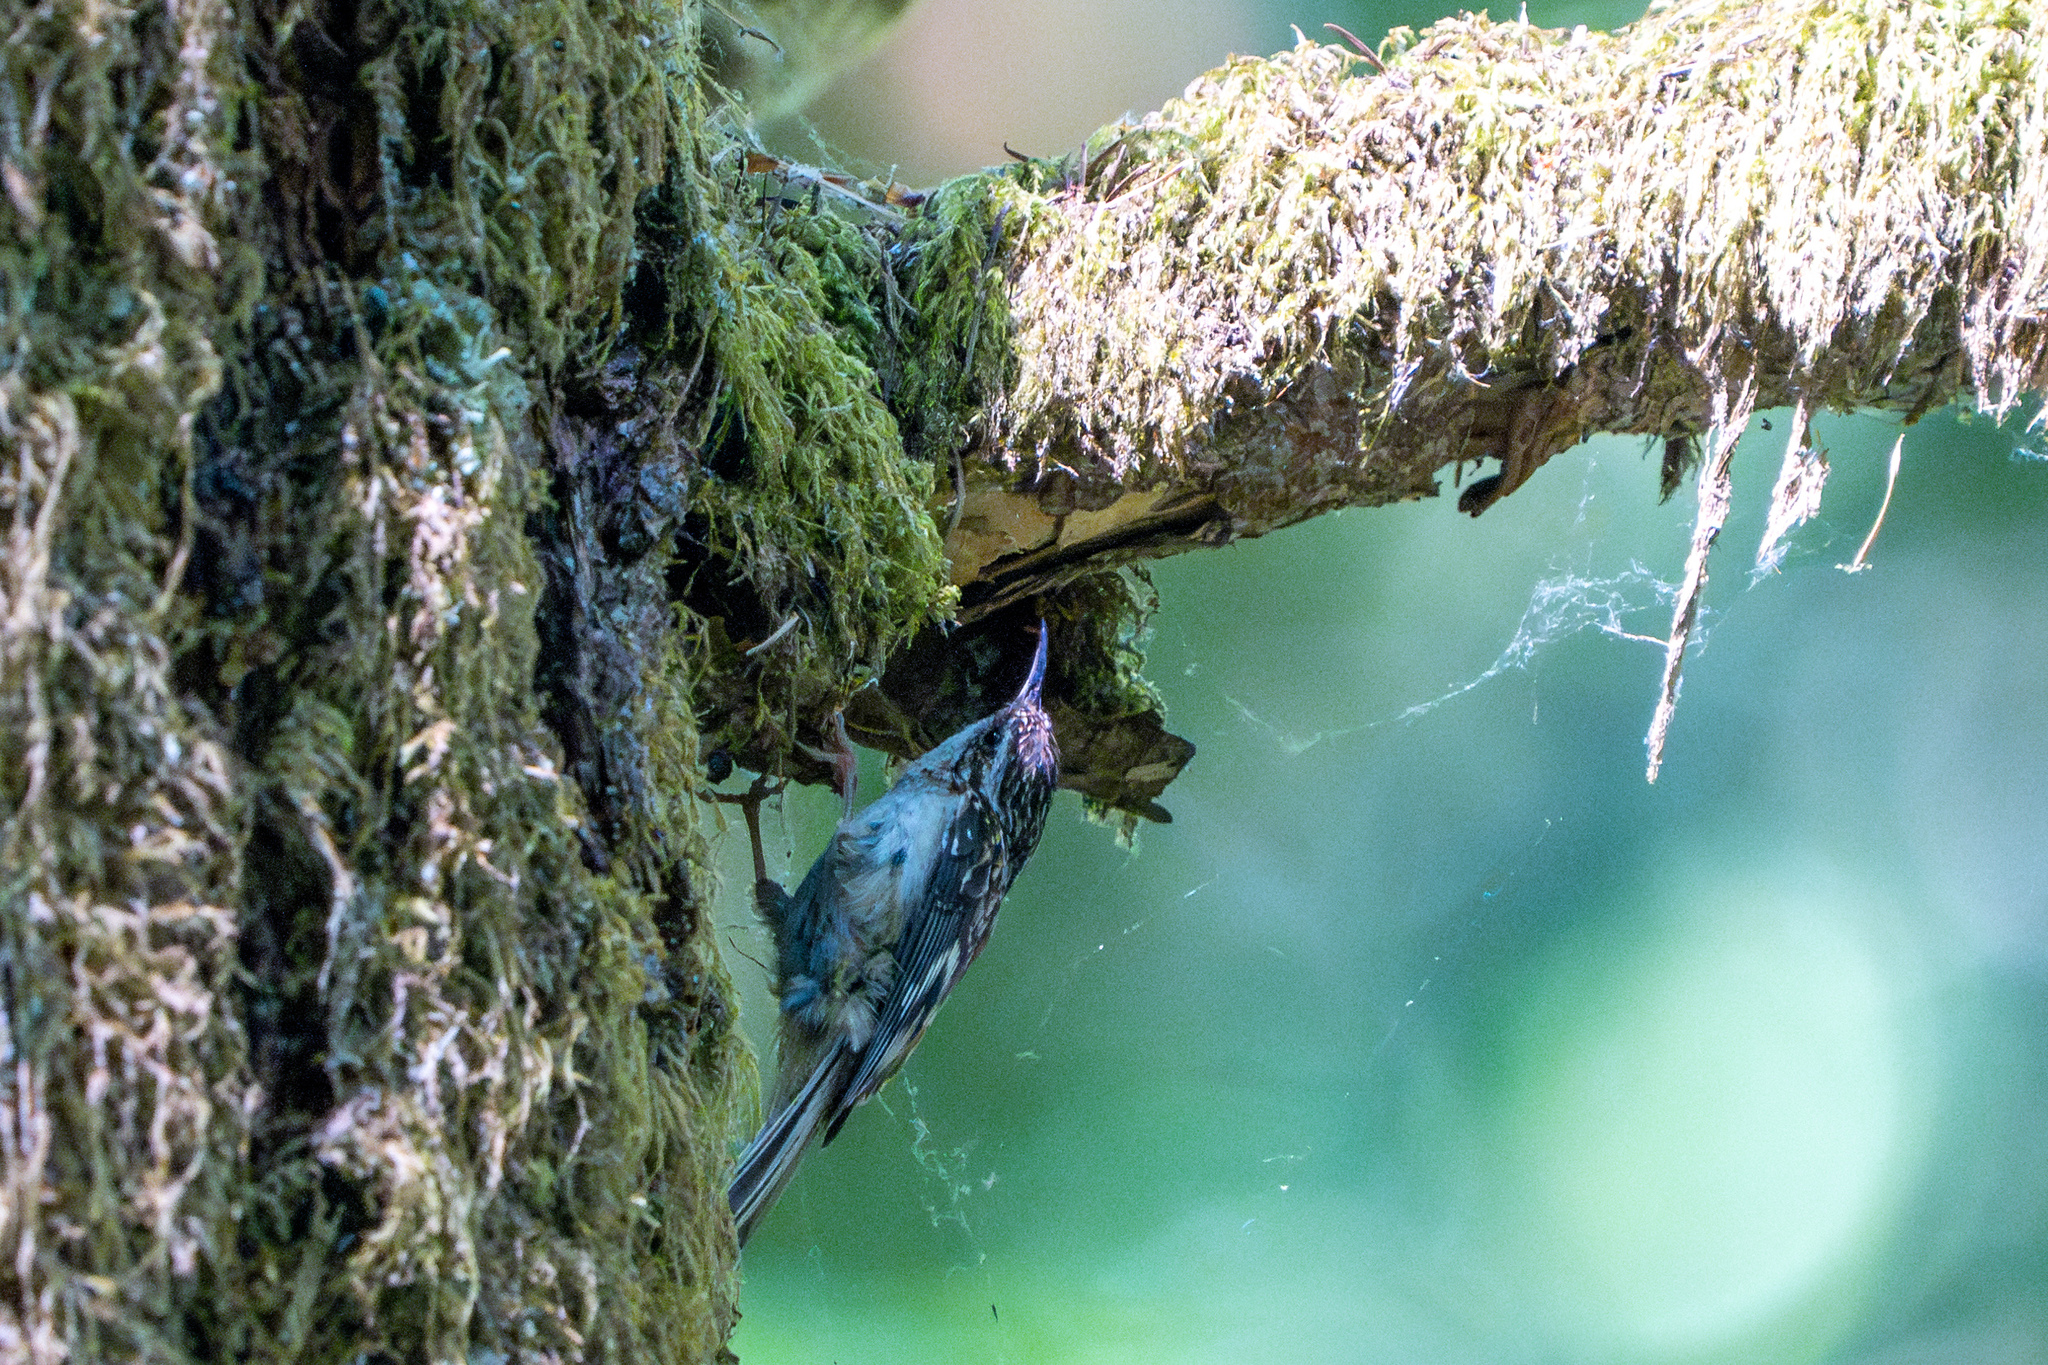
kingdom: Animalia
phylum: Chordata
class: Aves
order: Passeriformes
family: Certhiidae
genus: Certhia
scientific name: Certhia americana
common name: Brown creeper
